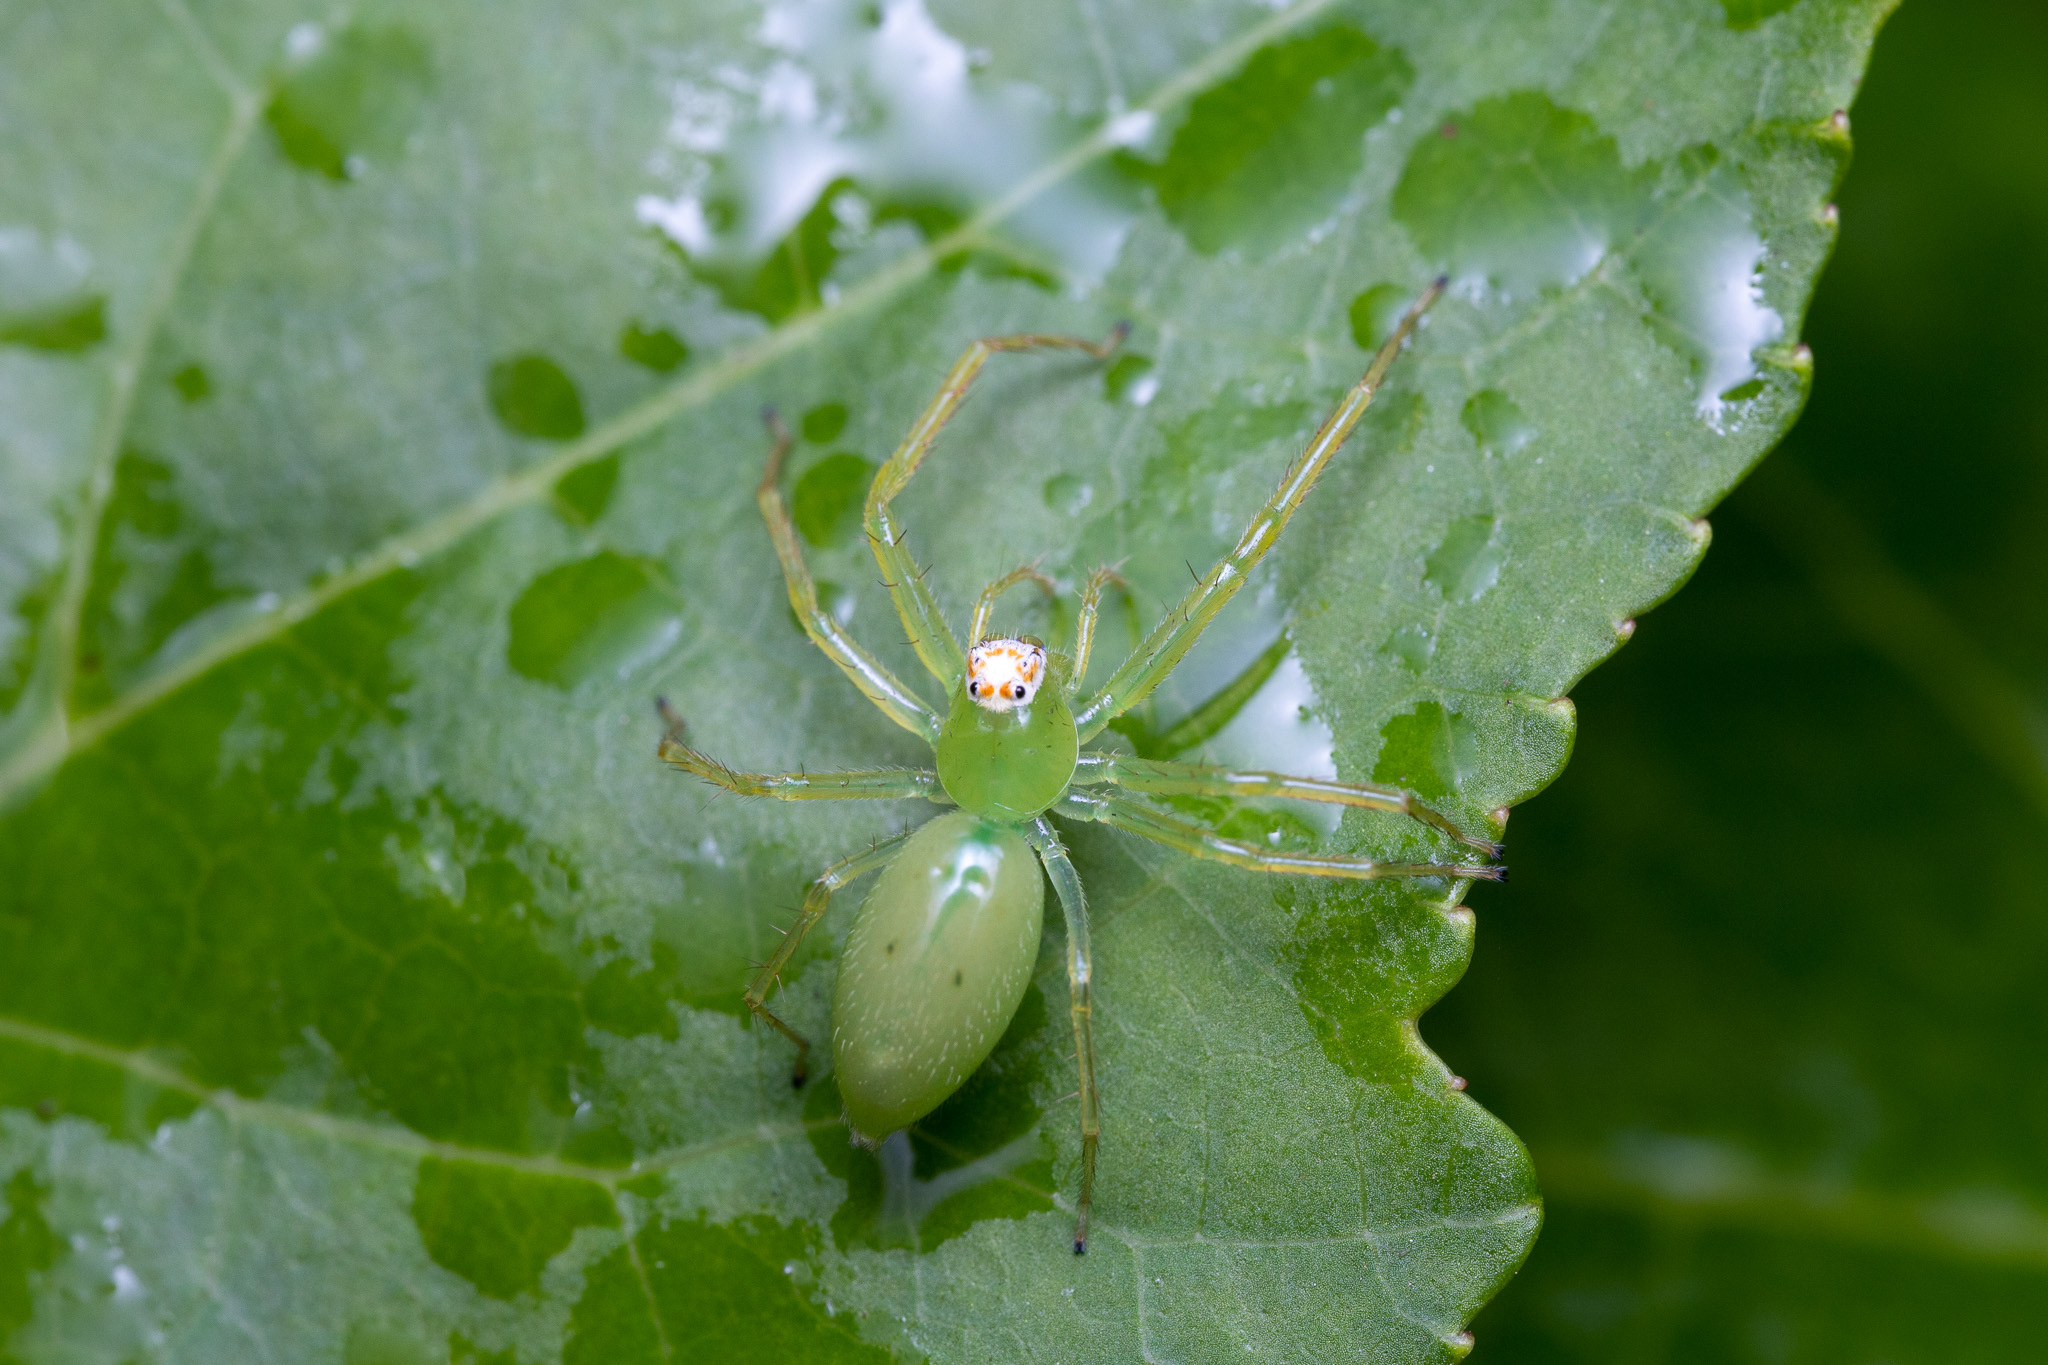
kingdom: Animalia
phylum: Arthropoda
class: Arachnida
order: Araneae
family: Salticidae
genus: Lyssomanes
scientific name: Lyssomanes viridis
